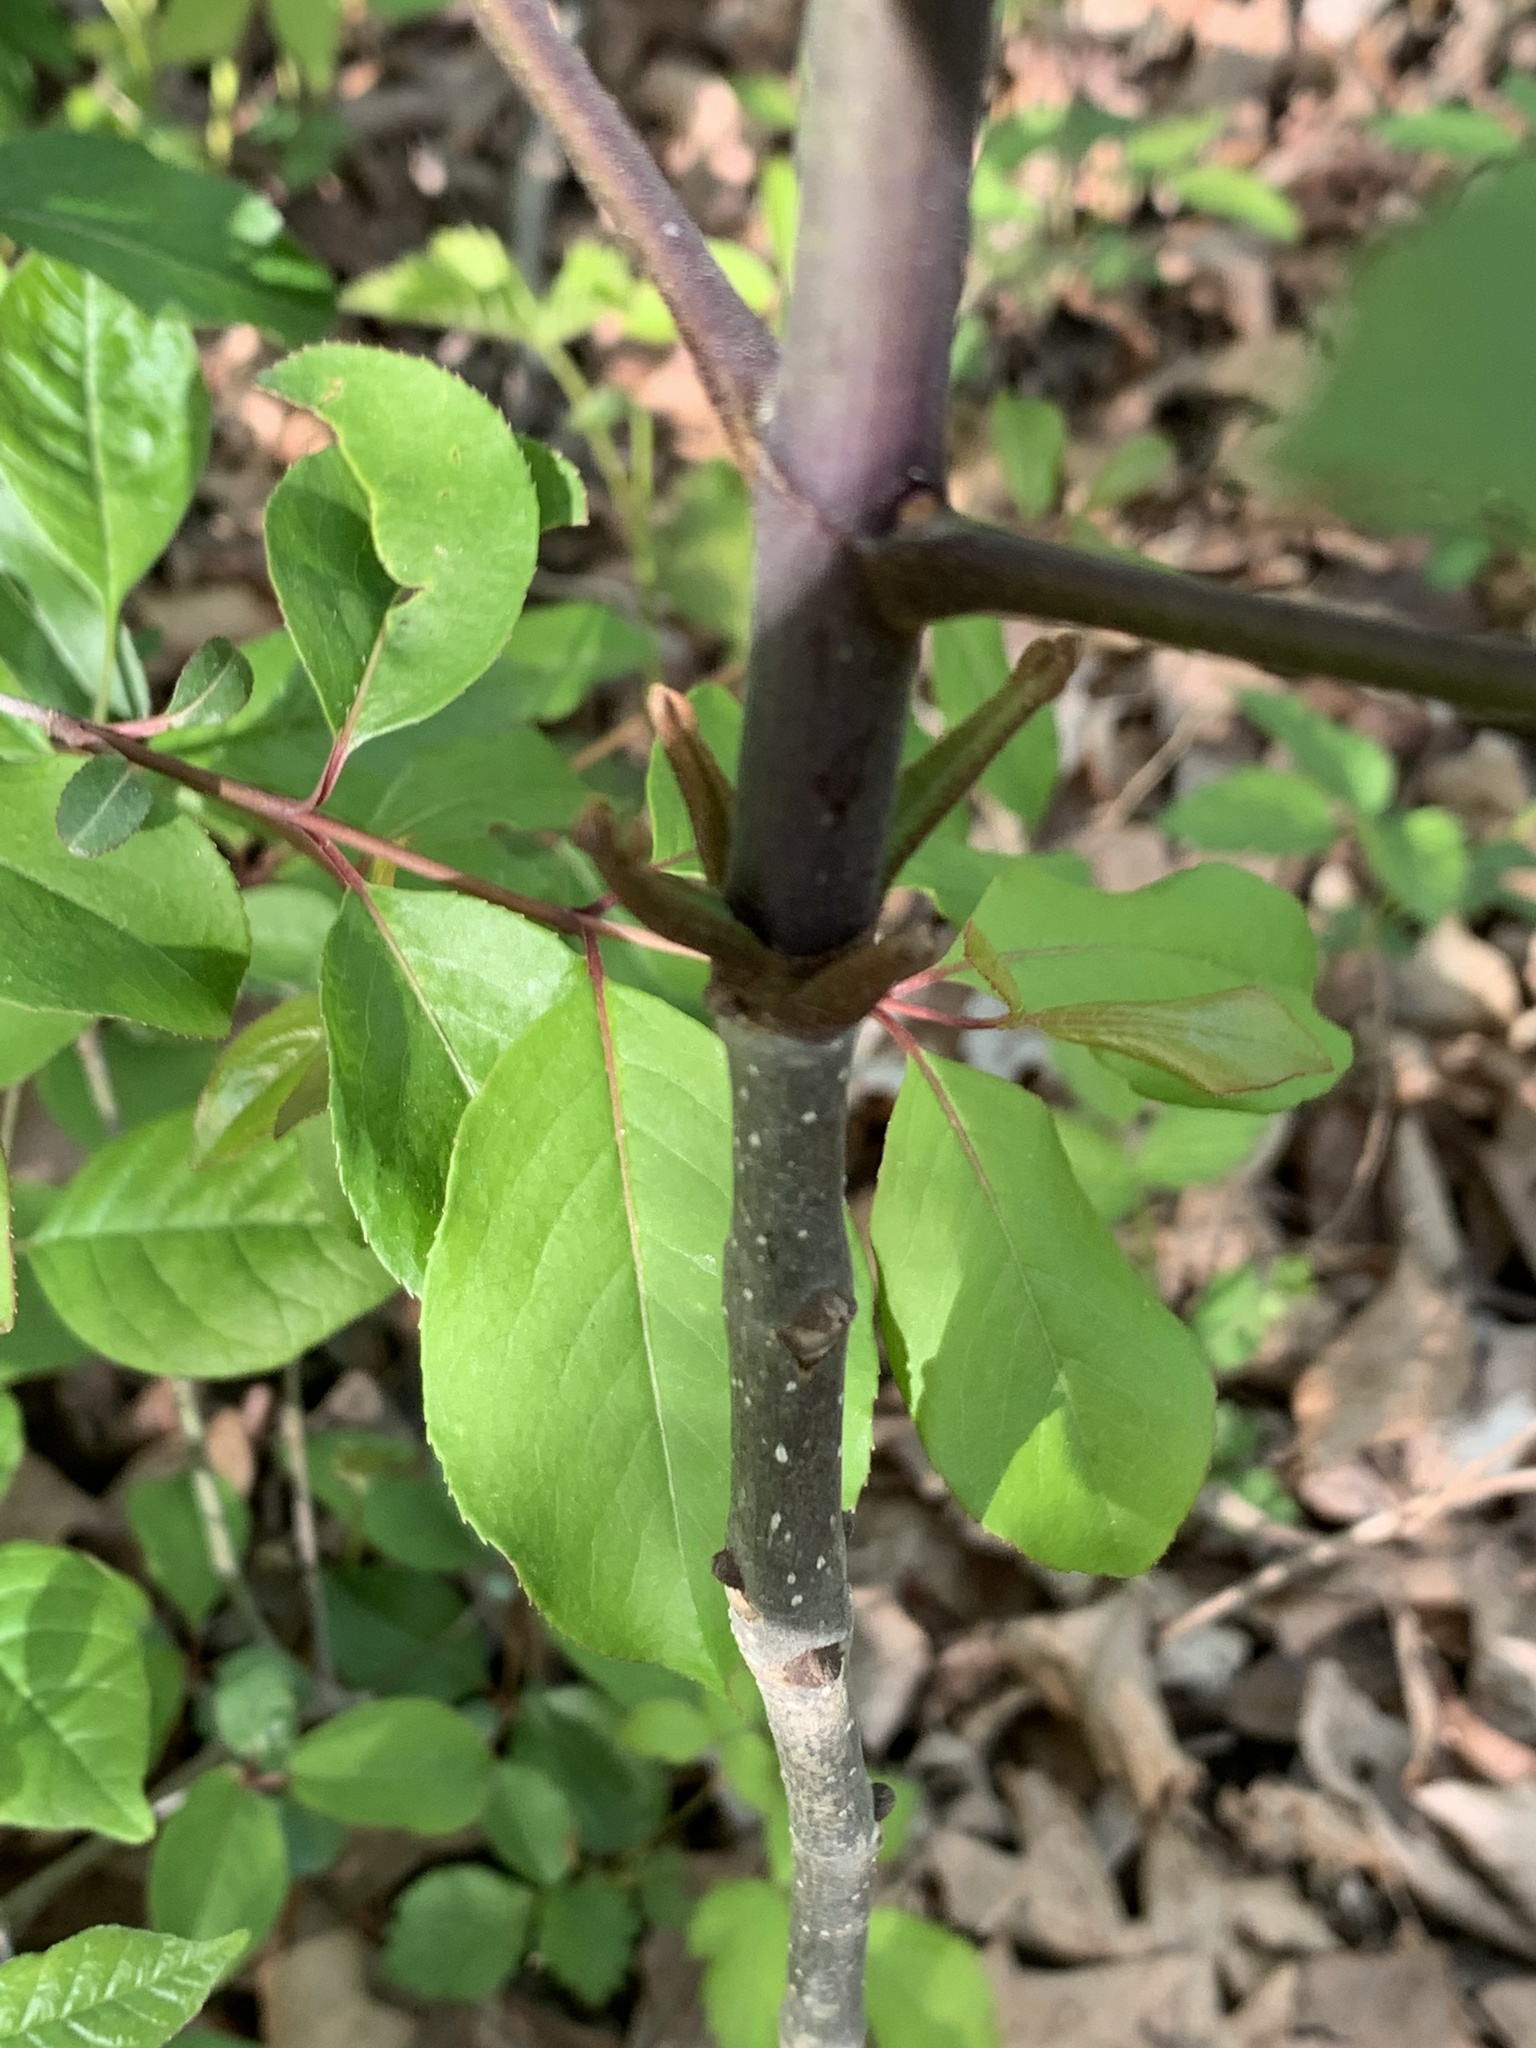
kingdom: Plantae
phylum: Tracheophyta
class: Magnoliopsida
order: Lamiales
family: Oleaceae
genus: Fraxinus
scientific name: Fraxinus americana
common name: White ash
